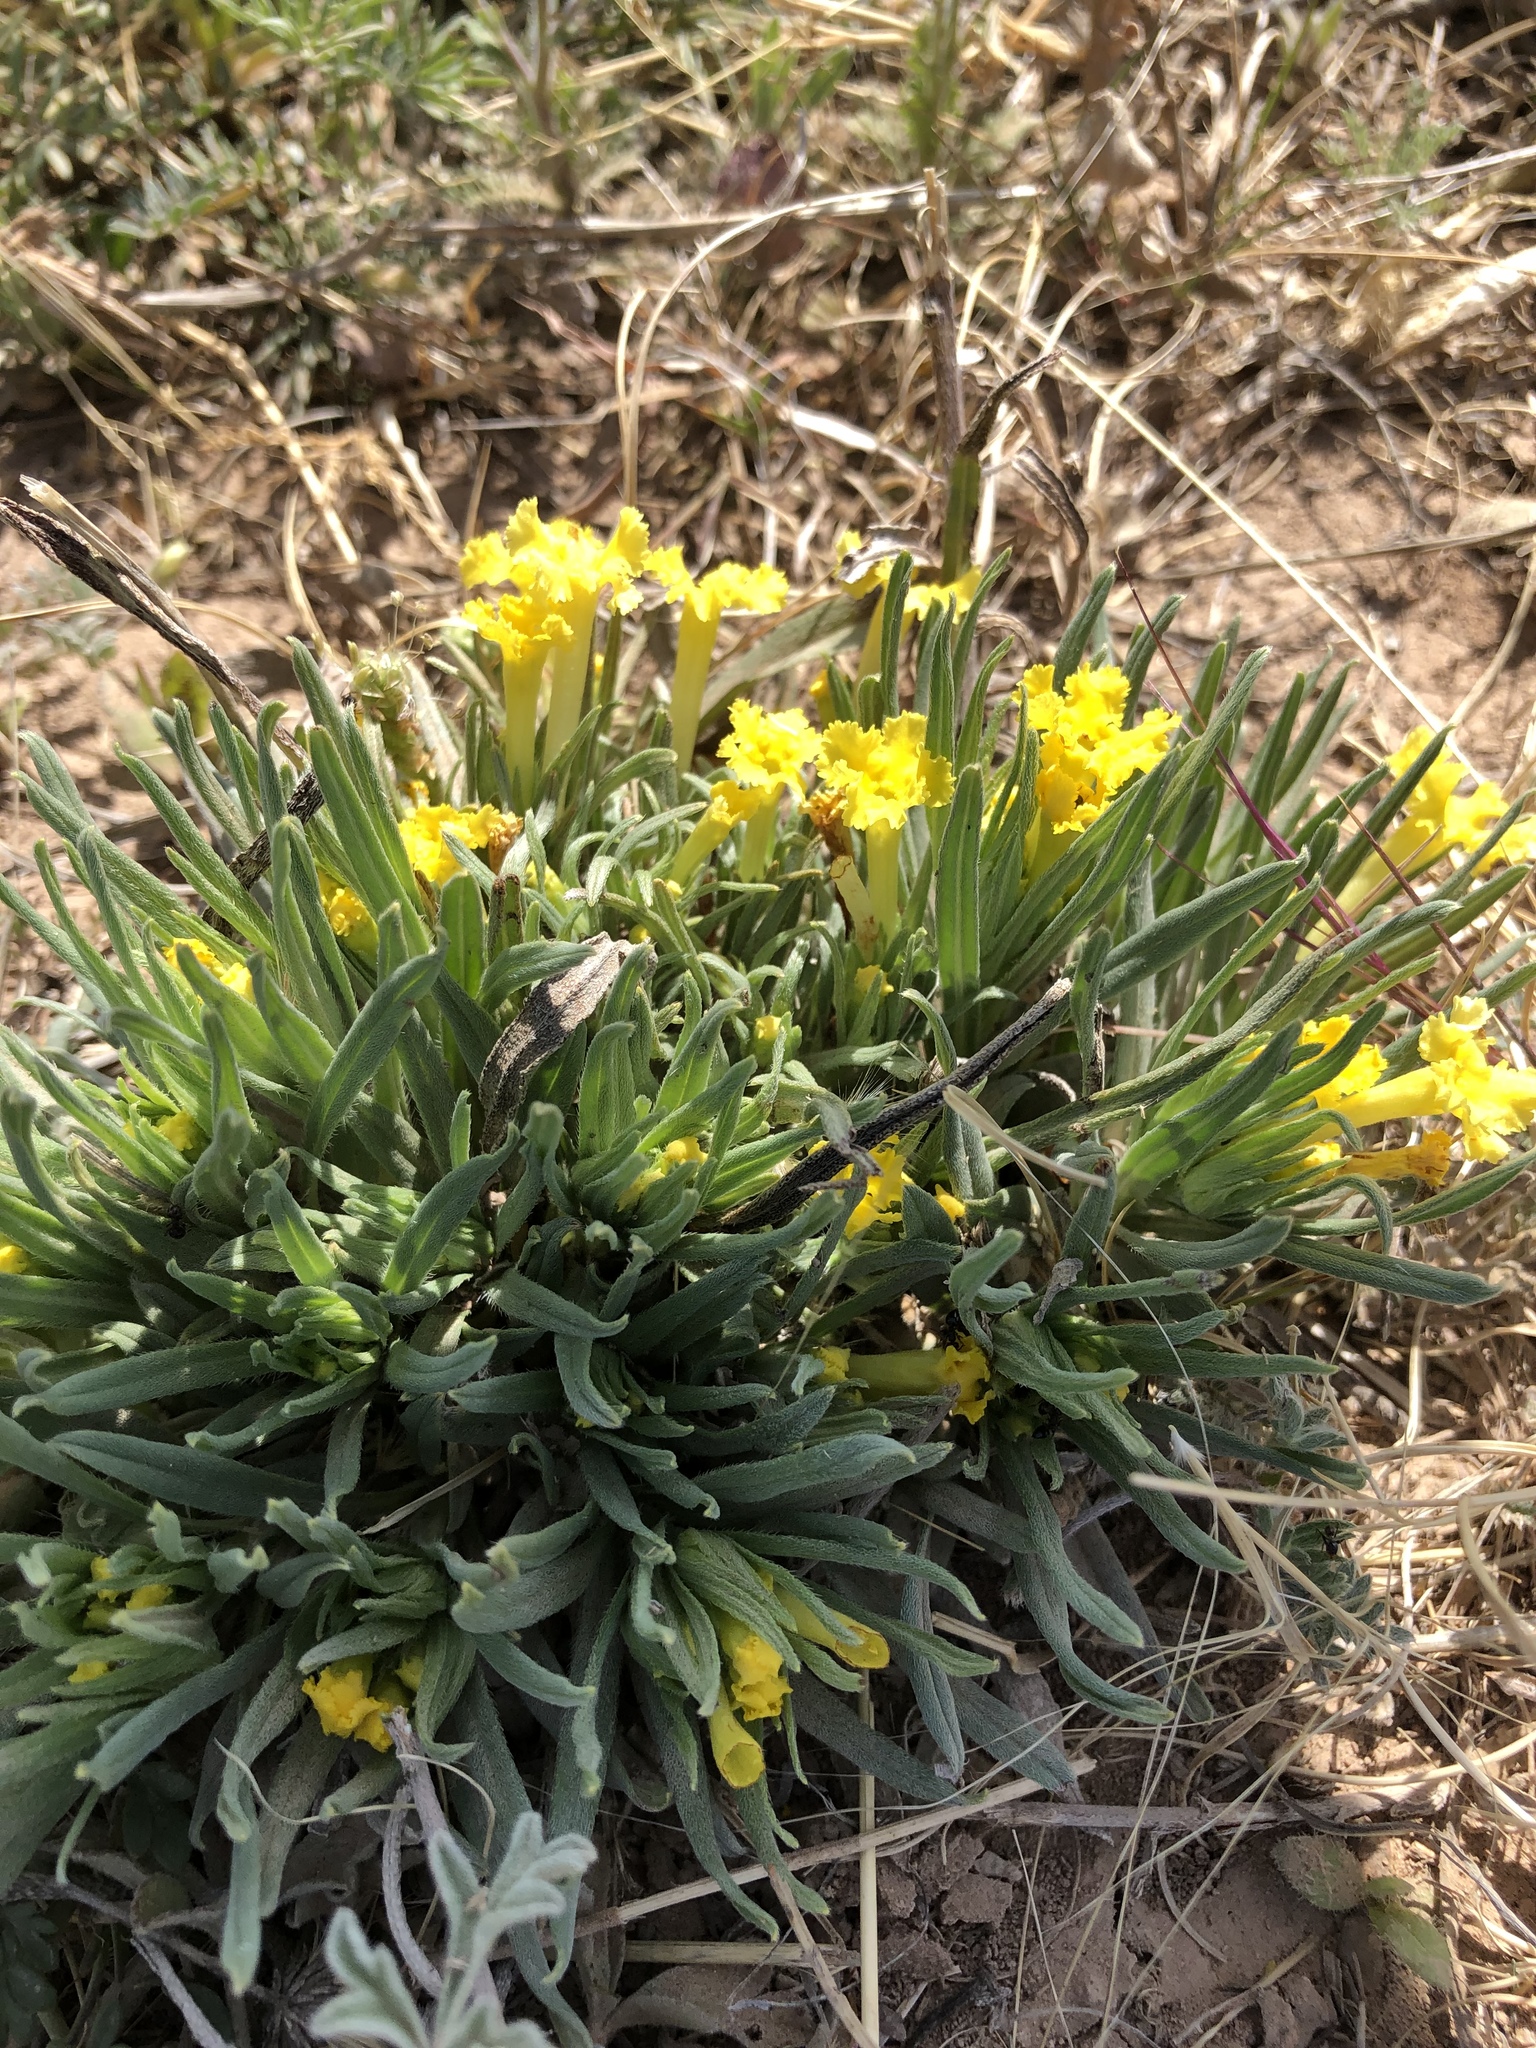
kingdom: Plantae
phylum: Tracheophyta
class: Magnoliopsida
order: Boraginales
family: Boraginaceae
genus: Lithospermum
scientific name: Lithospermum incisum
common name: Fringed gromwell
